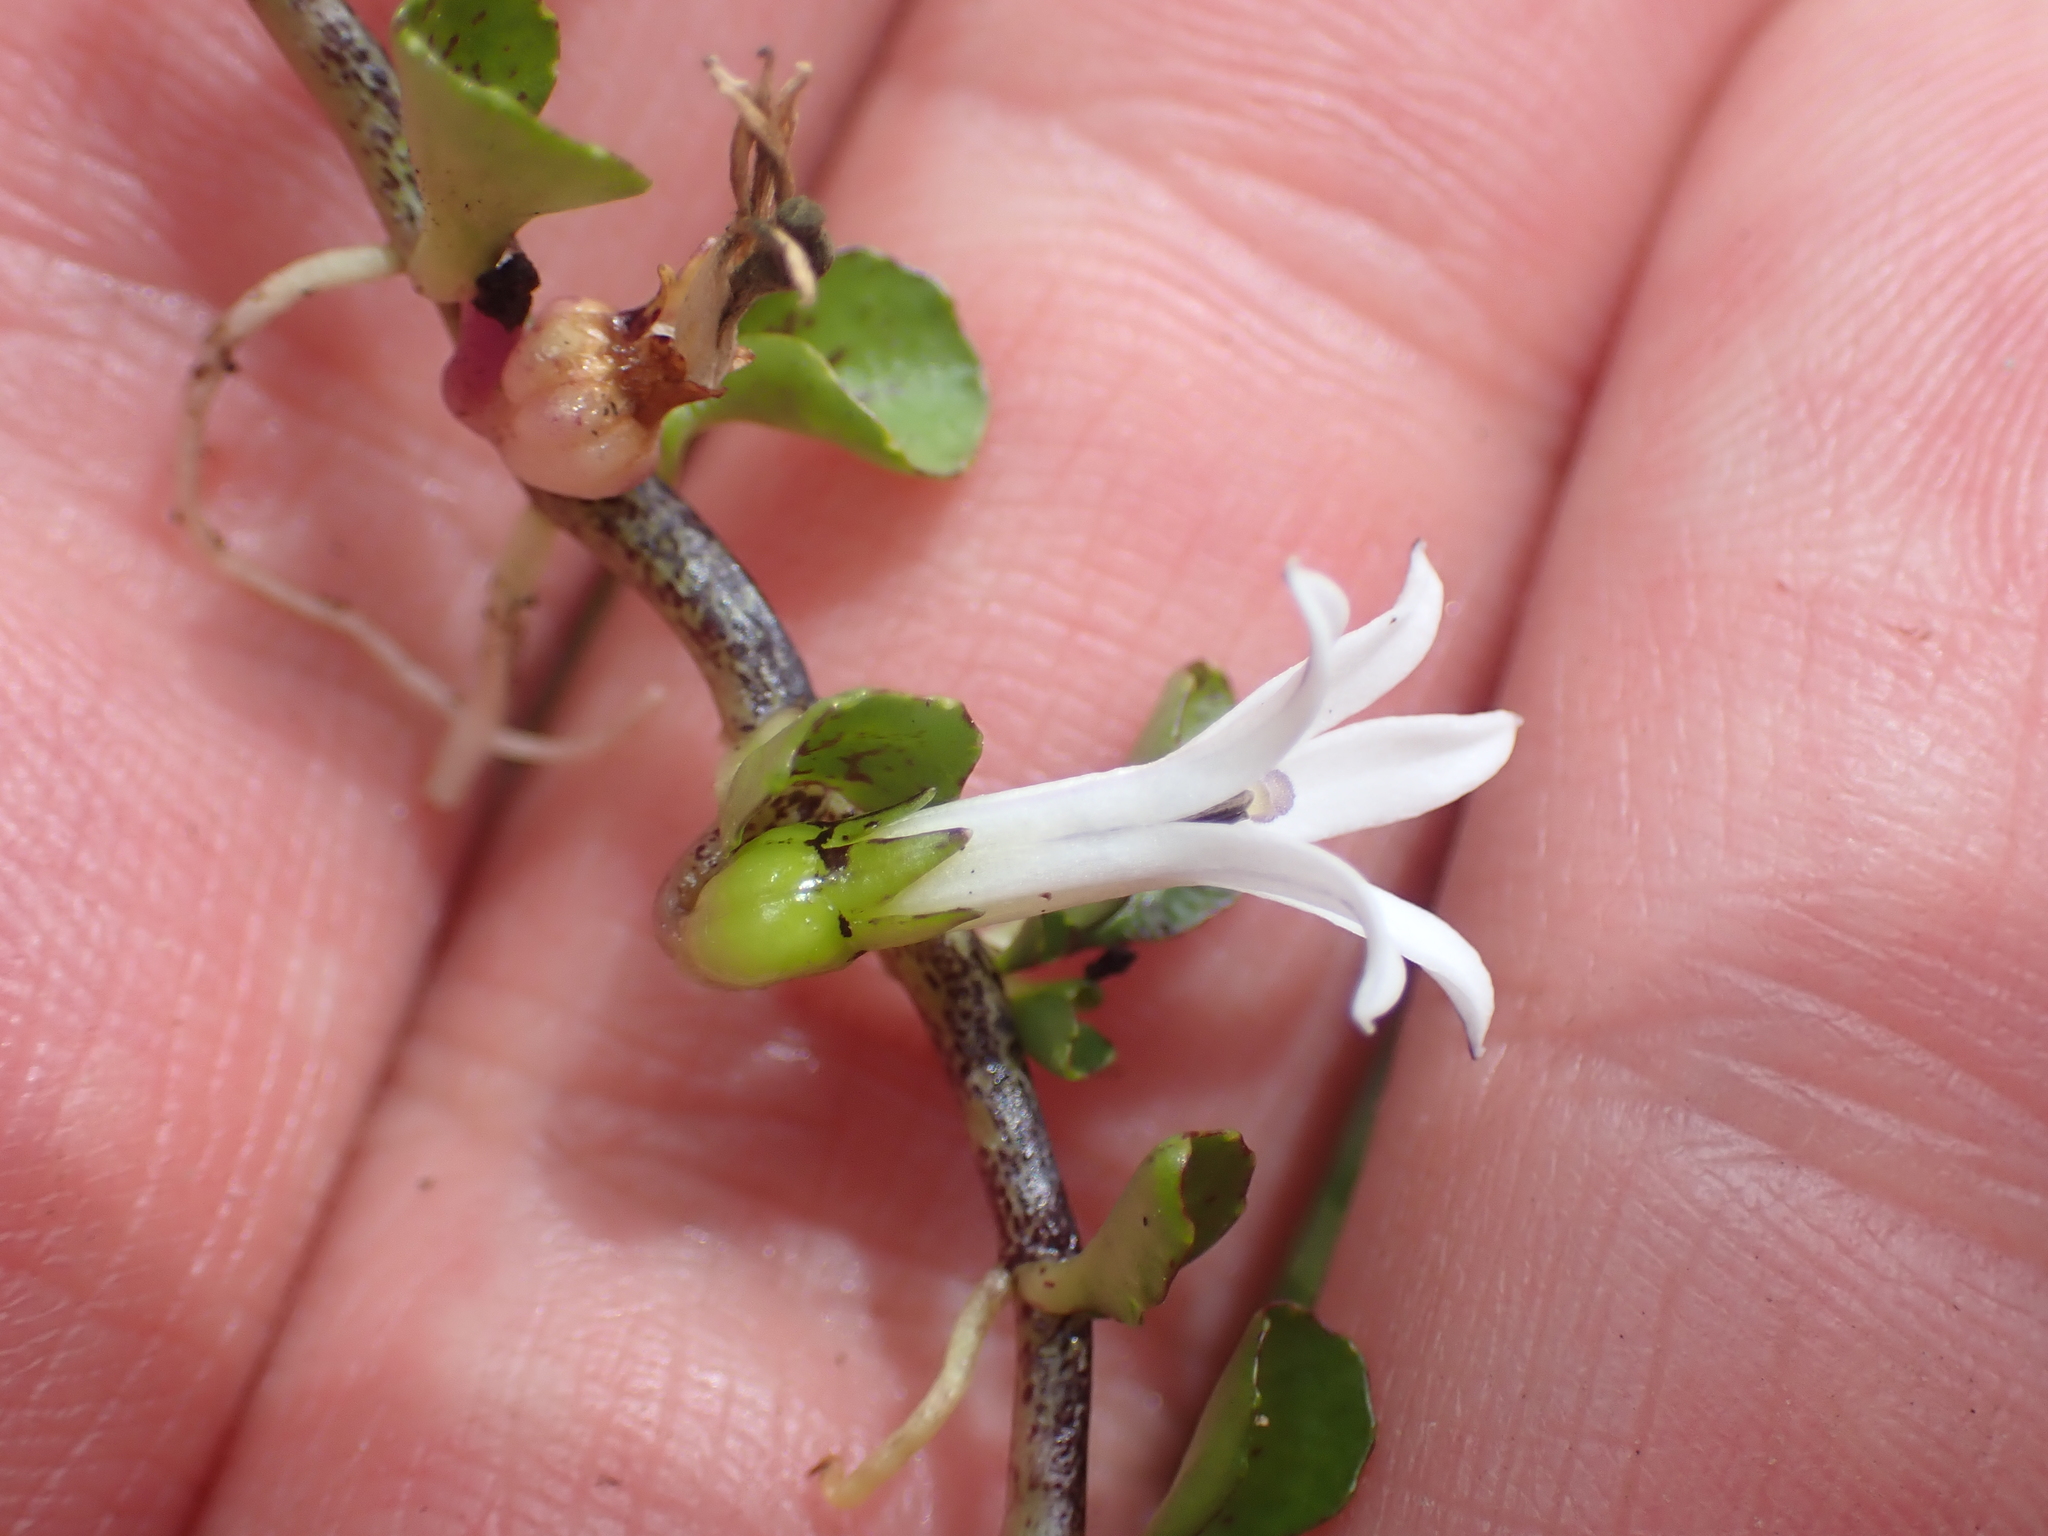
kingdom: Plantae
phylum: Tracheophyta
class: Magnoliopsida
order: Asterales
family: Campanulaceae
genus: Lobelia
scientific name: Lobelia angulata
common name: Lawn lobelia
